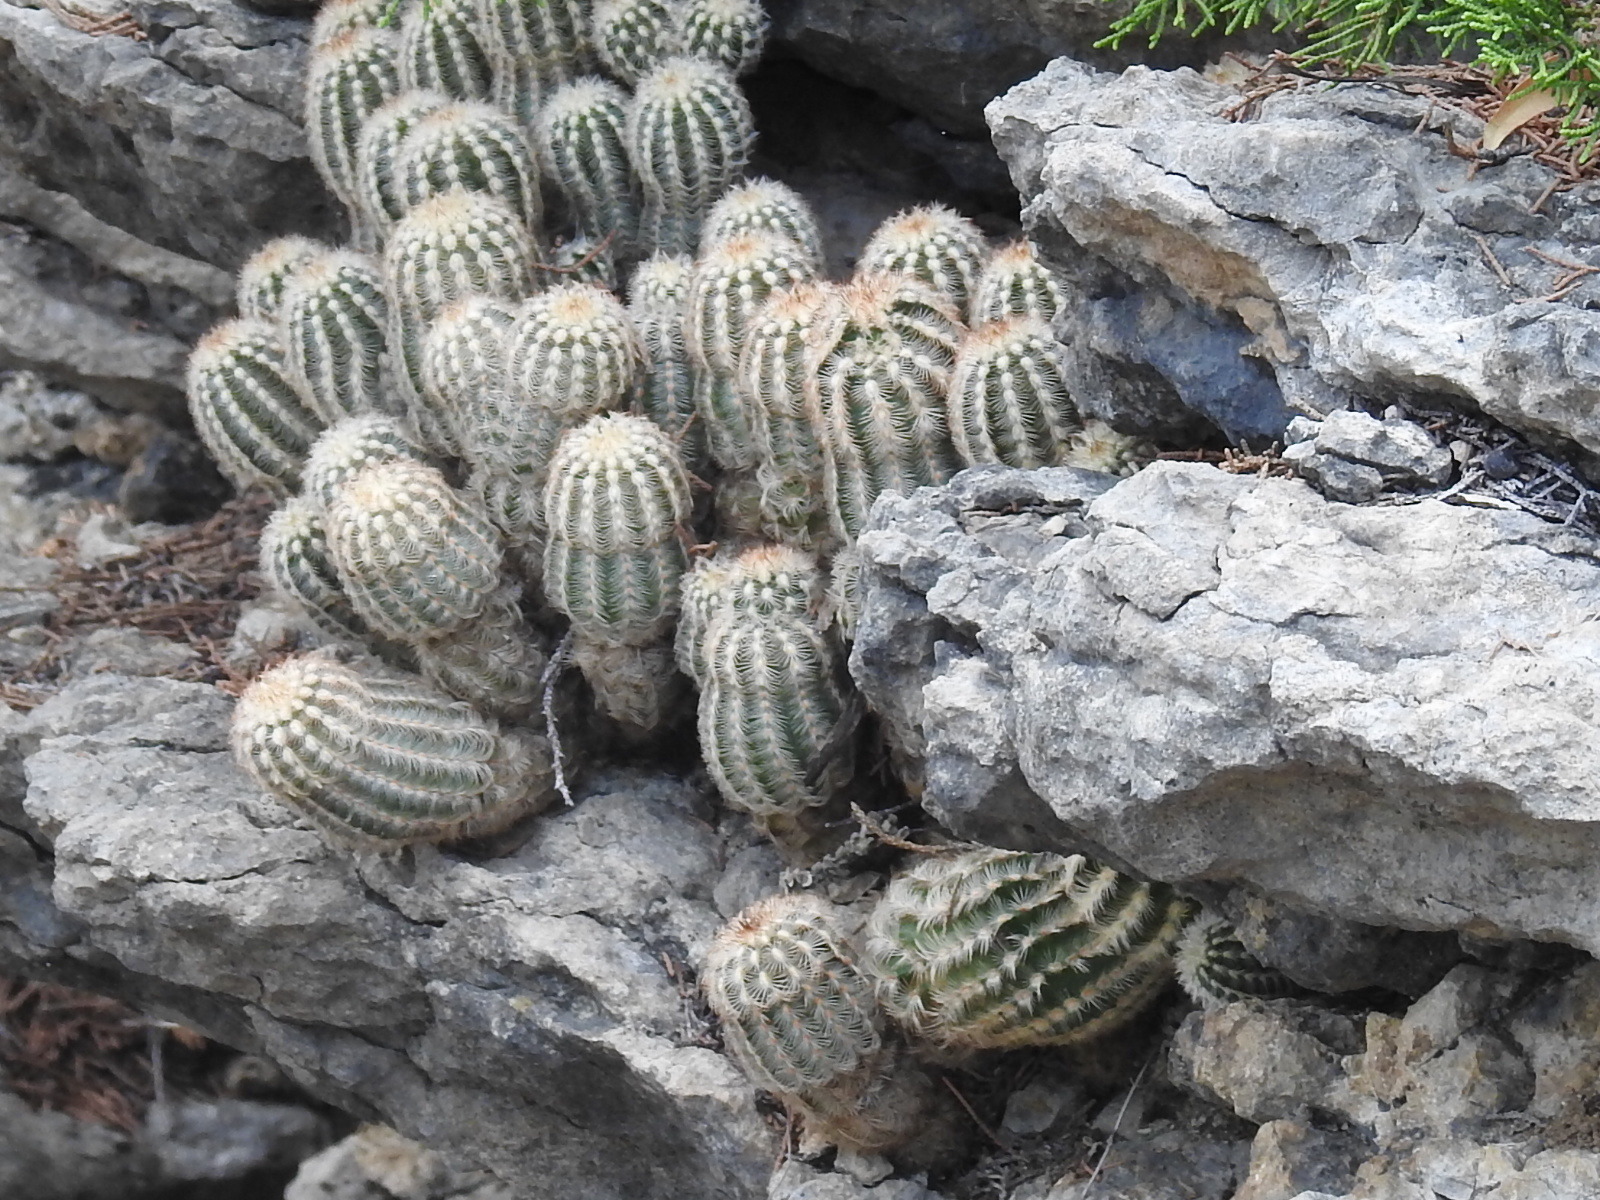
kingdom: Plantae
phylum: Tracheophyta
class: Magnoliopsida
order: Caryophyllales
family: Cactaceae
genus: Echinocereus
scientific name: Echinocereus reichenbachii
